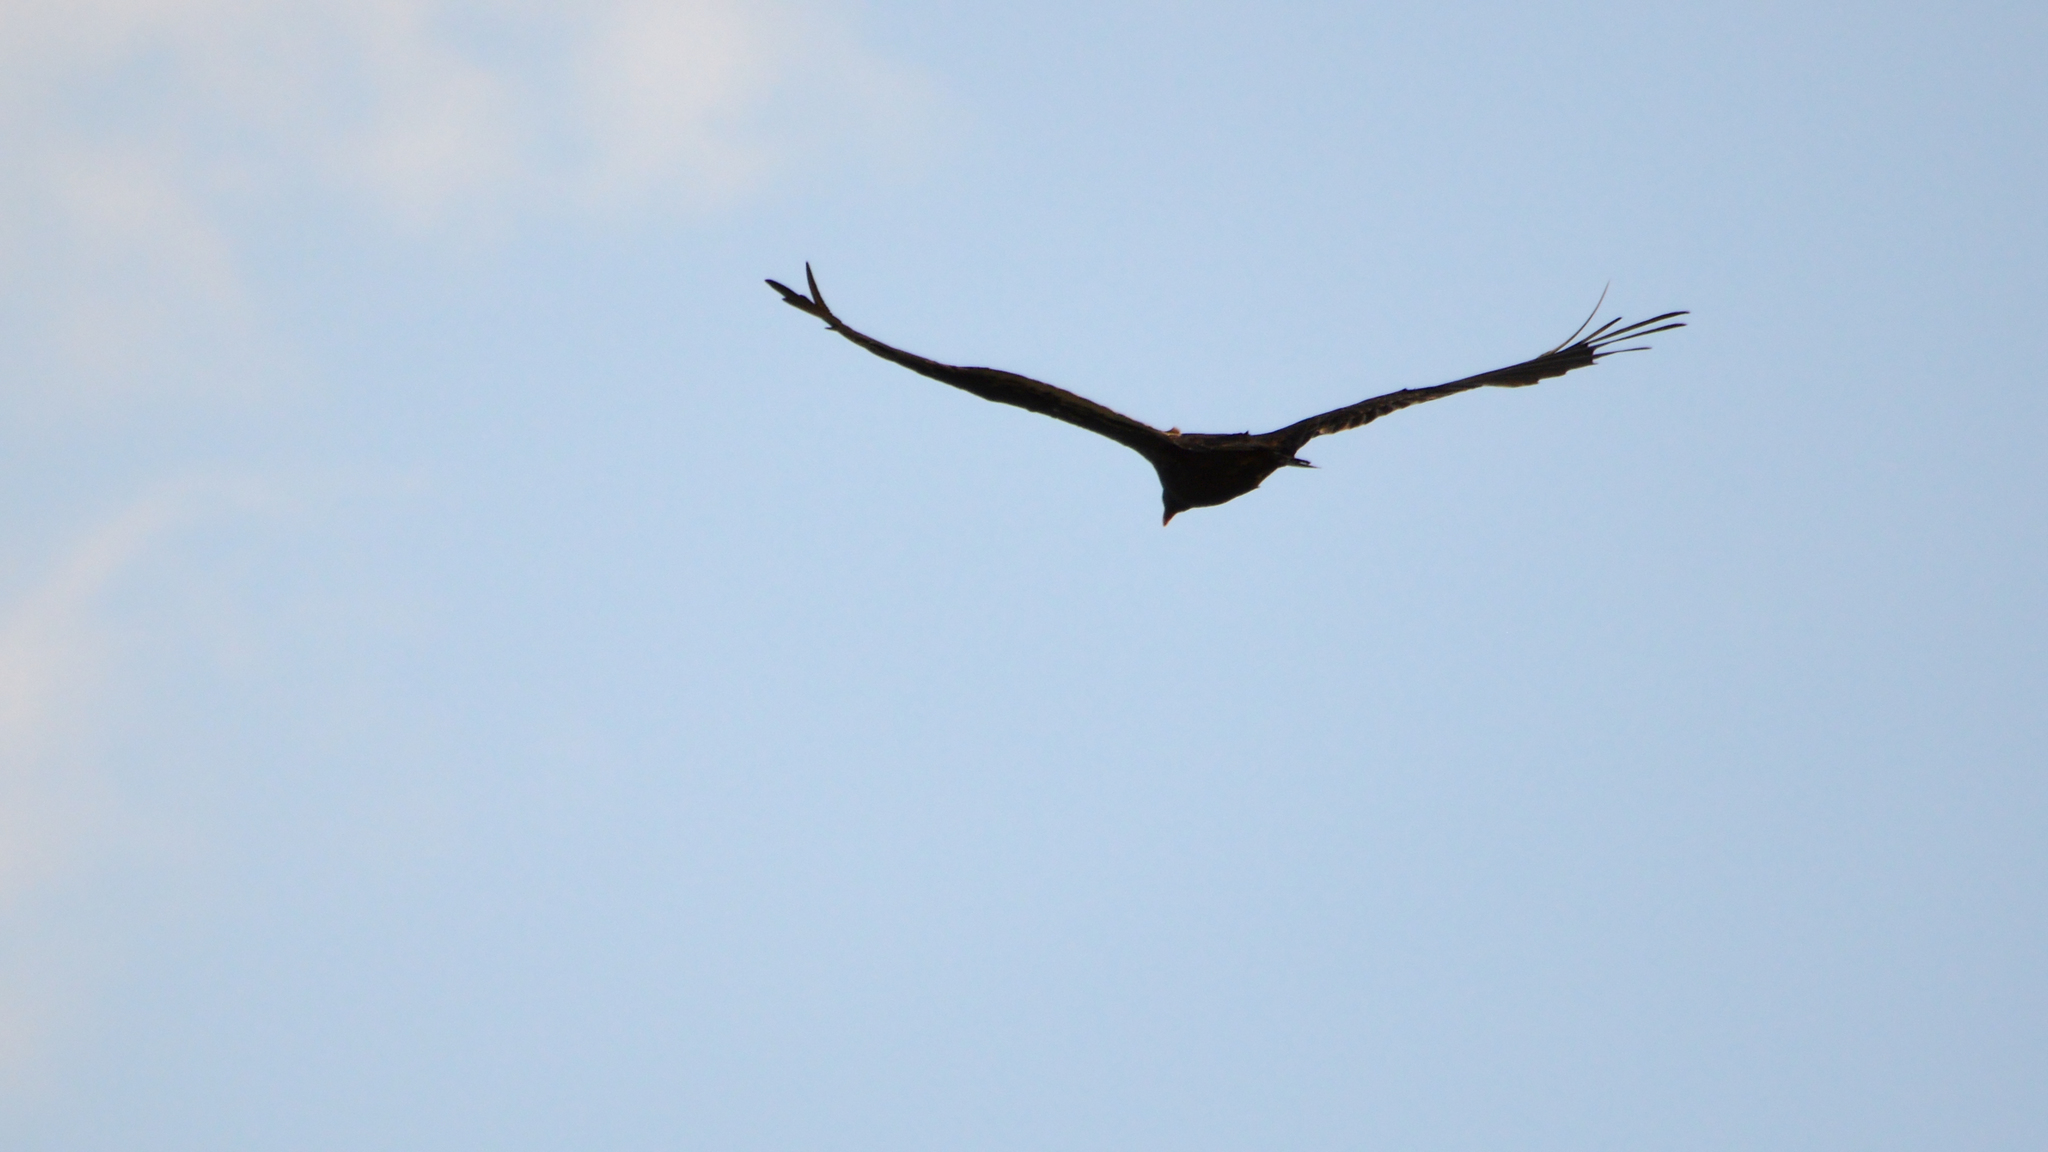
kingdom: Animalia
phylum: Chordata
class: Aves
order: Accipitriformes
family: Cathartidae
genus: Cathartes
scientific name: Cathartes aura
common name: Turkey vulture
